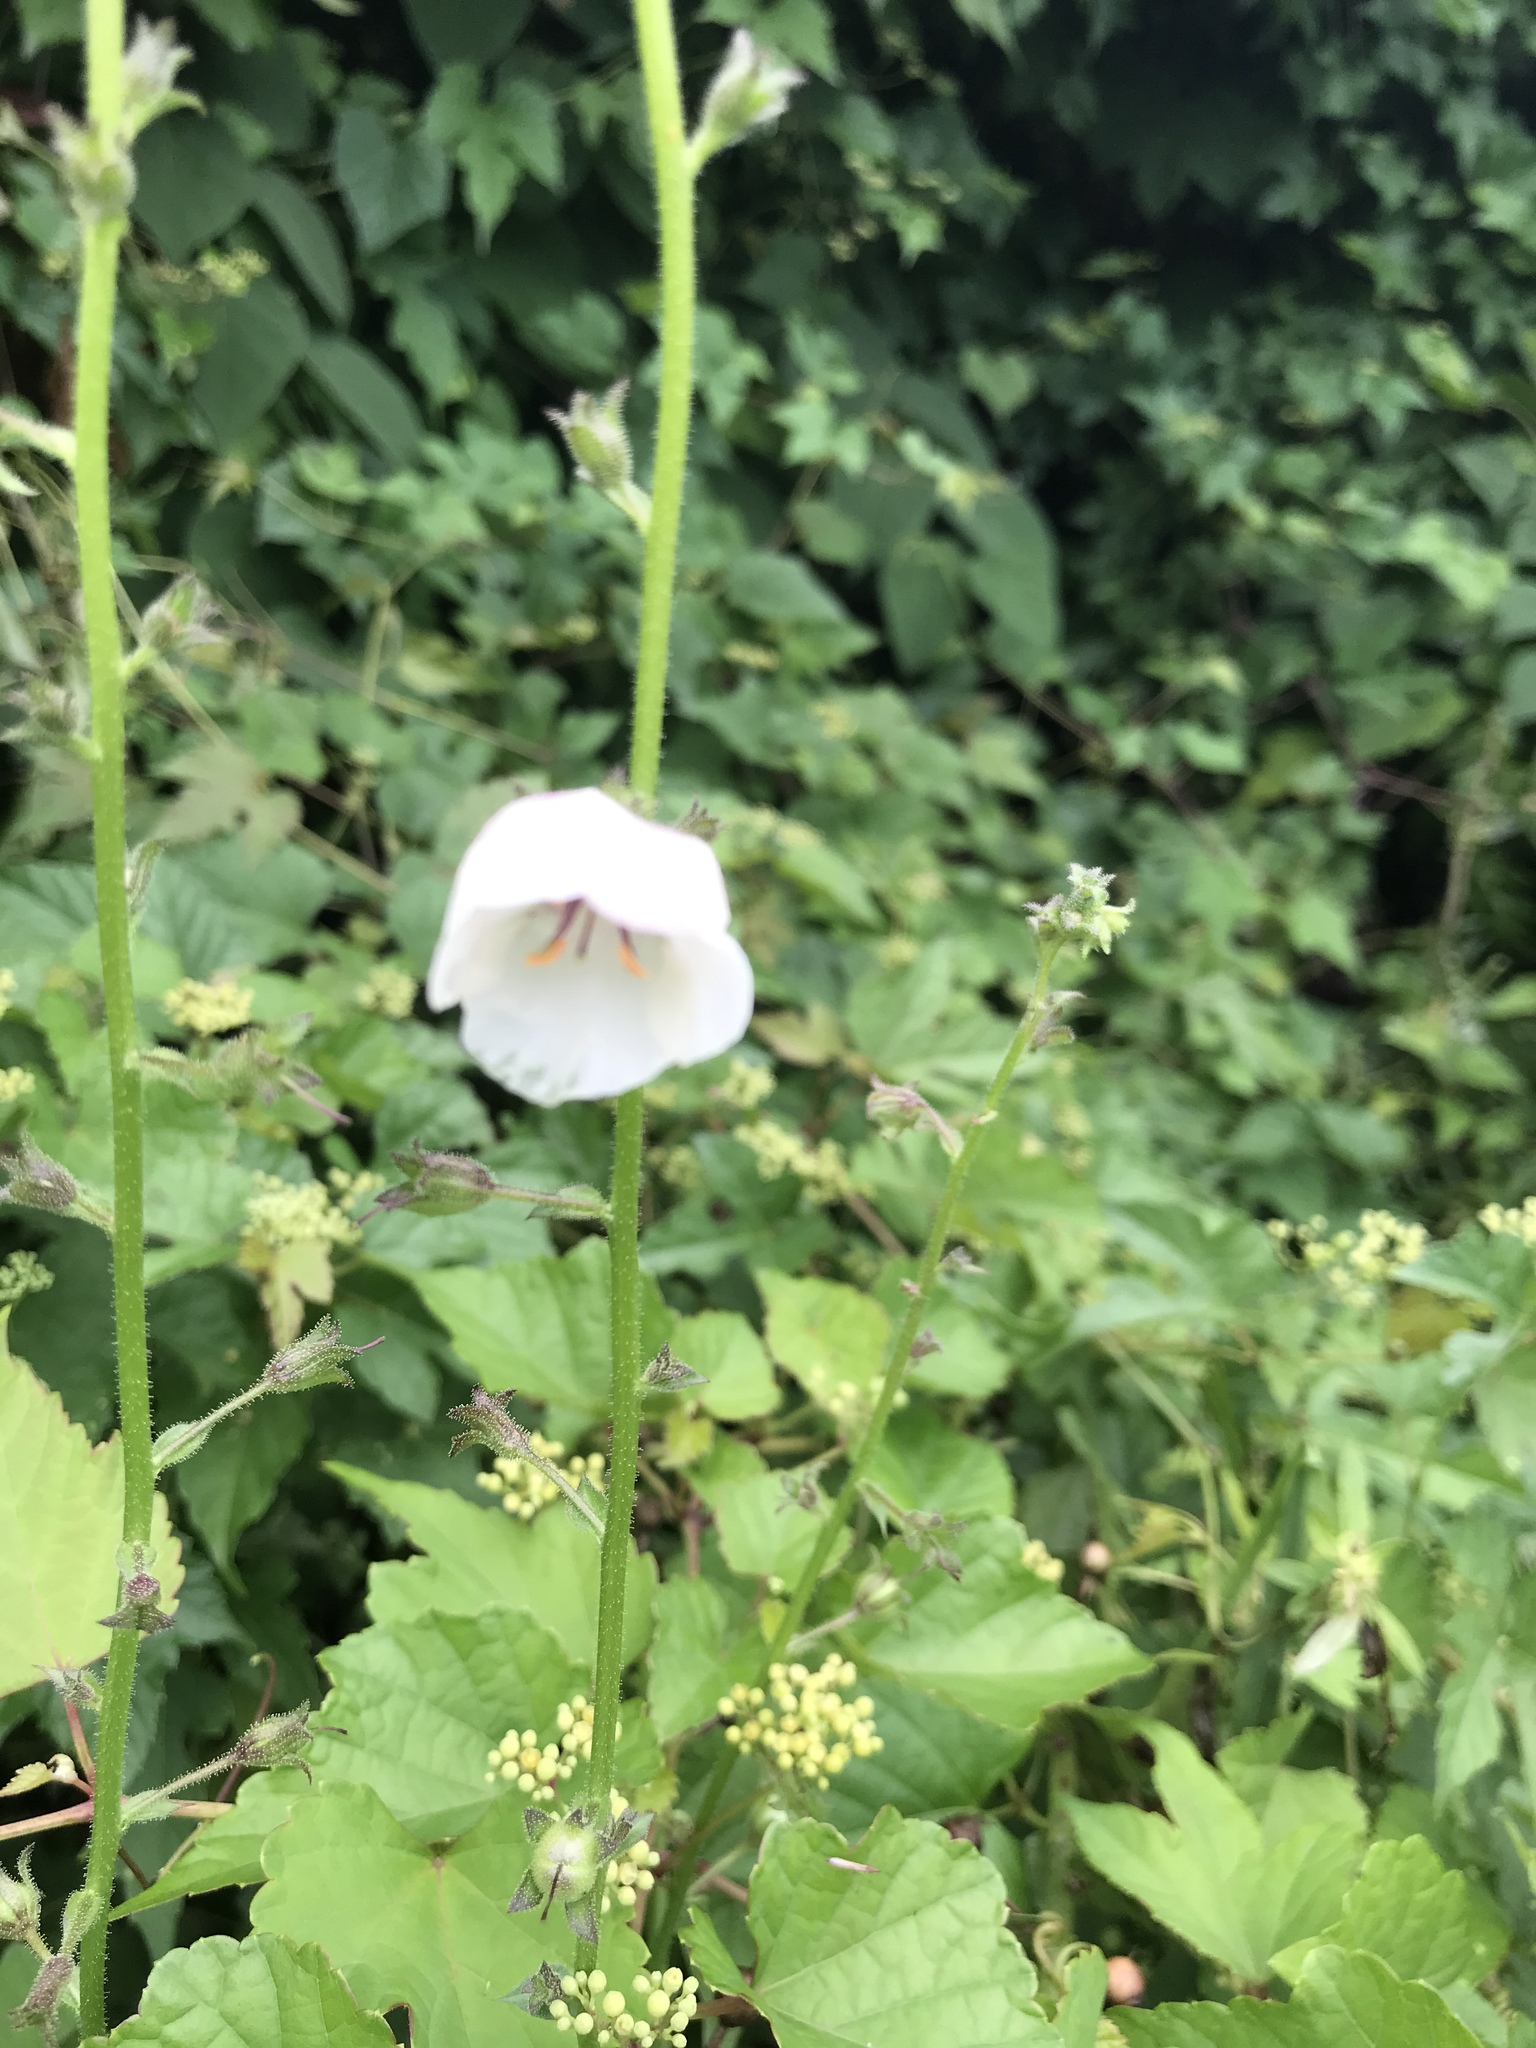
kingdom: Plantae
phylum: Tracheophyta
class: Magnoliopsida
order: Lamiales
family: Scrophulariaceae
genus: Verbascum
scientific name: Verbascum blattaria
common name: Moth mullein
